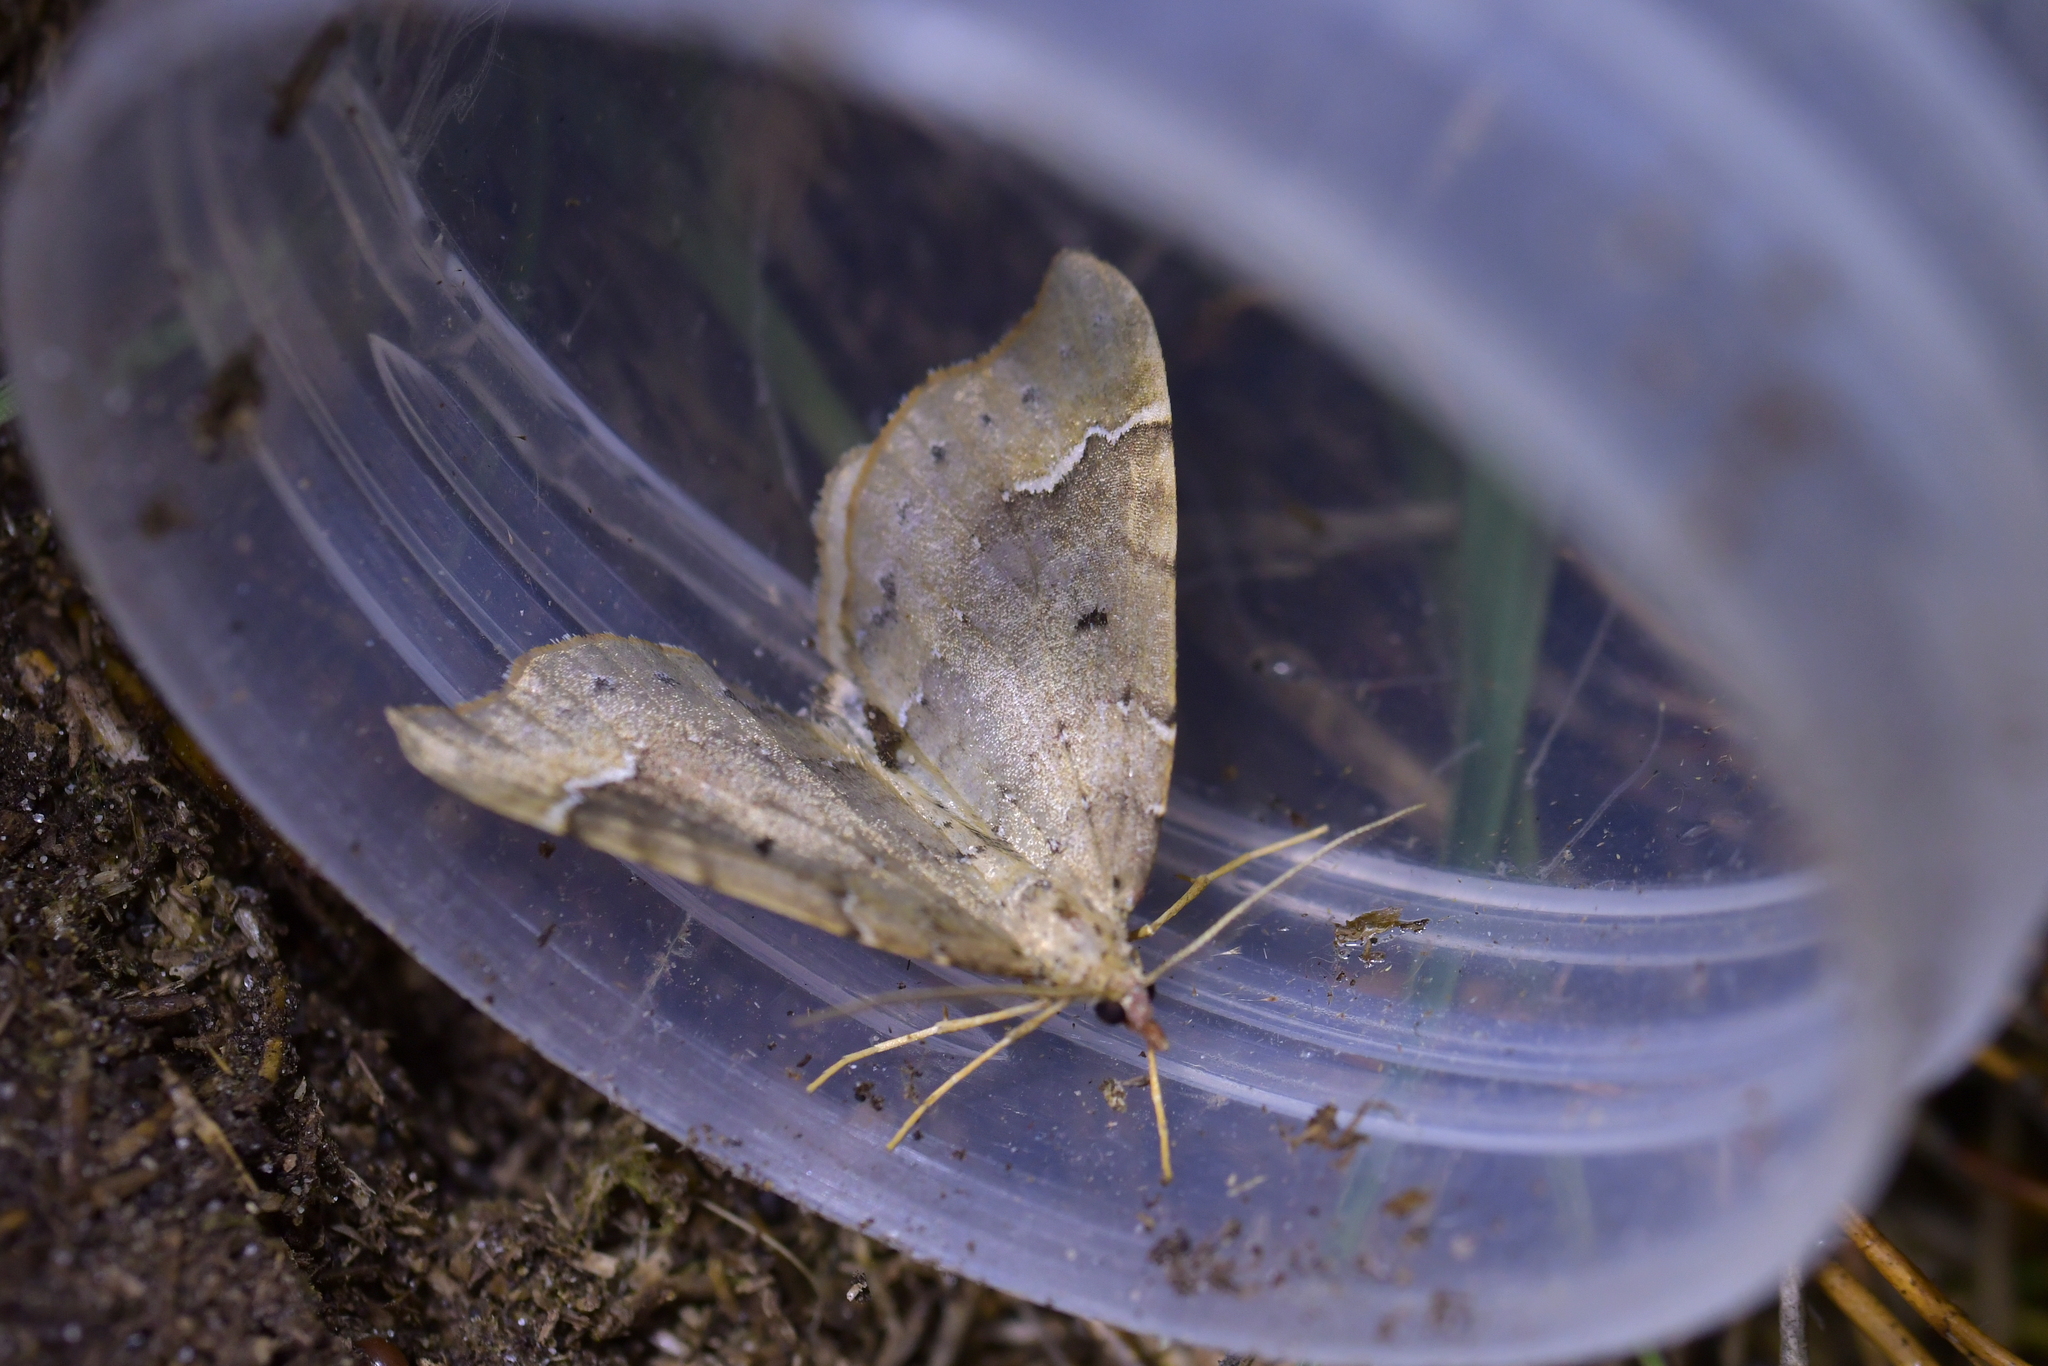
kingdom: Animalia
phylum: Arthropoda
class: Insecta
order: Lepidoptera
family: Geometridae
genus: Asaphodes
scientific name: Asaphodes camelias
